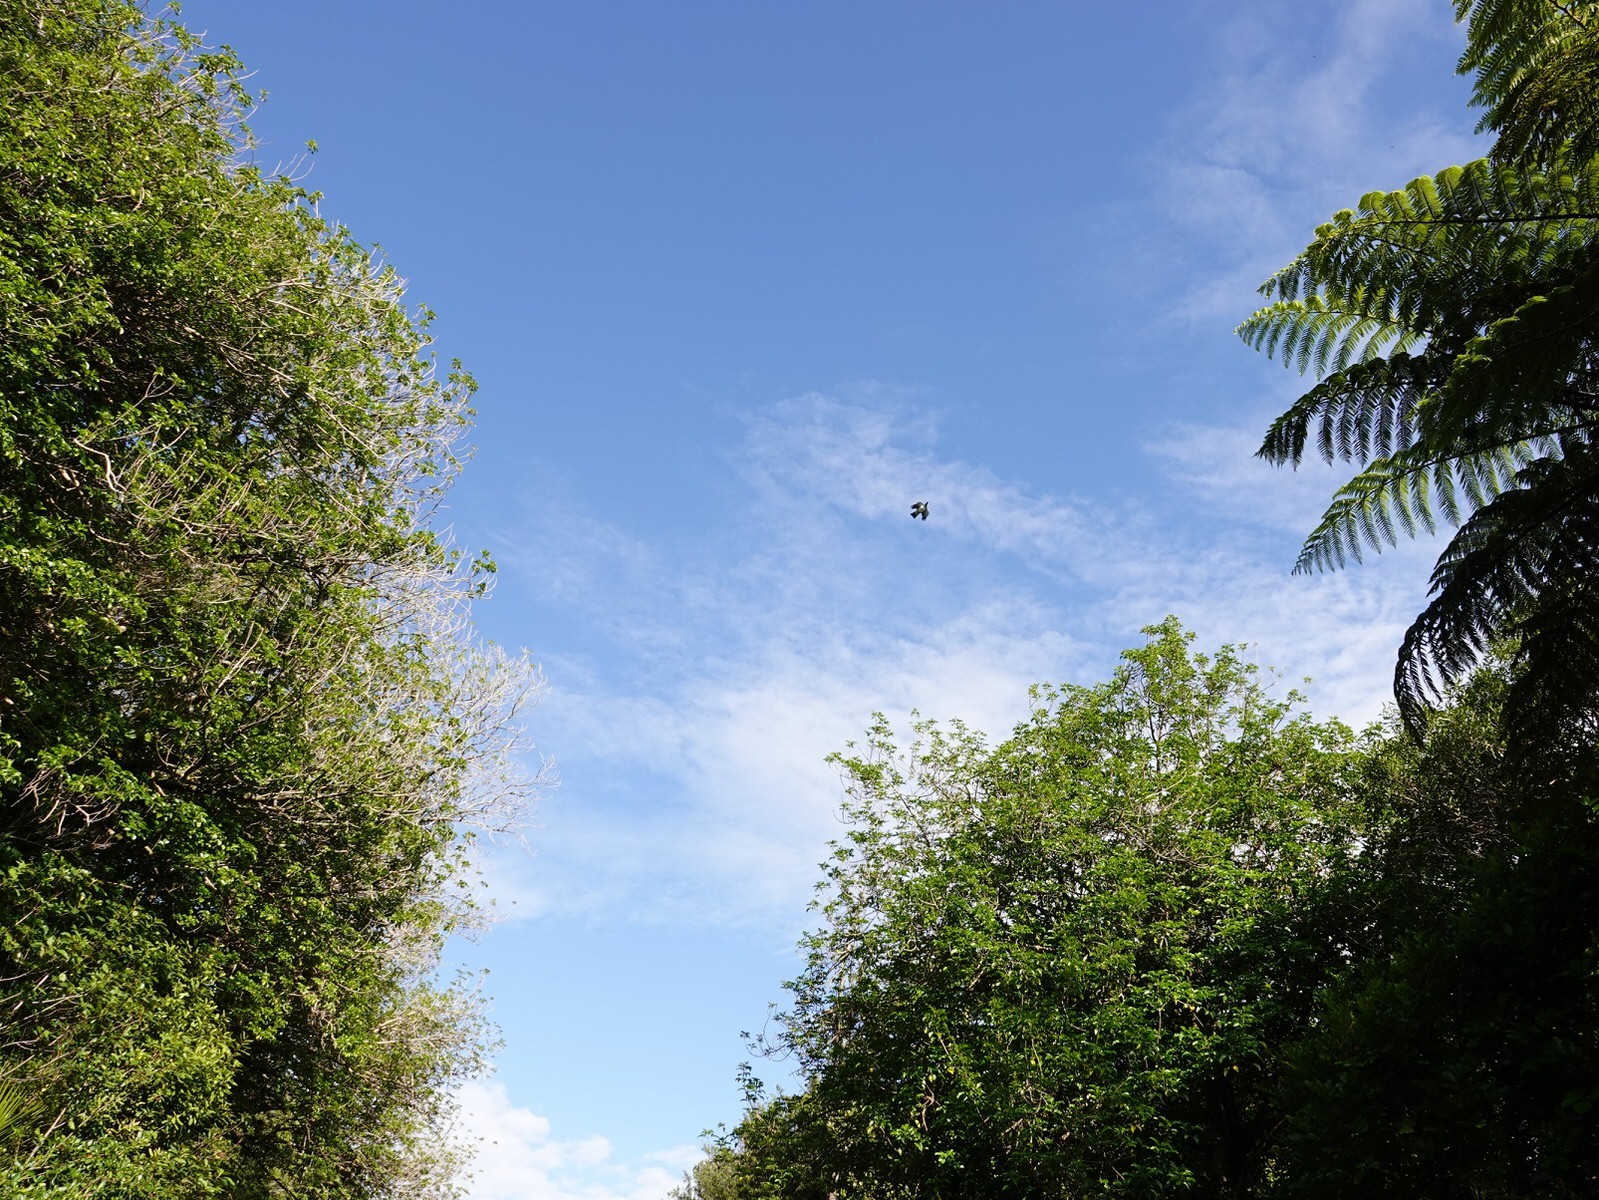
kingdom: Animalia
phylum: Chordata
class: Aves
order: Columbiformes
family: Columbidae
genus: Hemiphaga
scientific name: Hemiphaga novaeseelandiae
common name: New zealand pigeon
